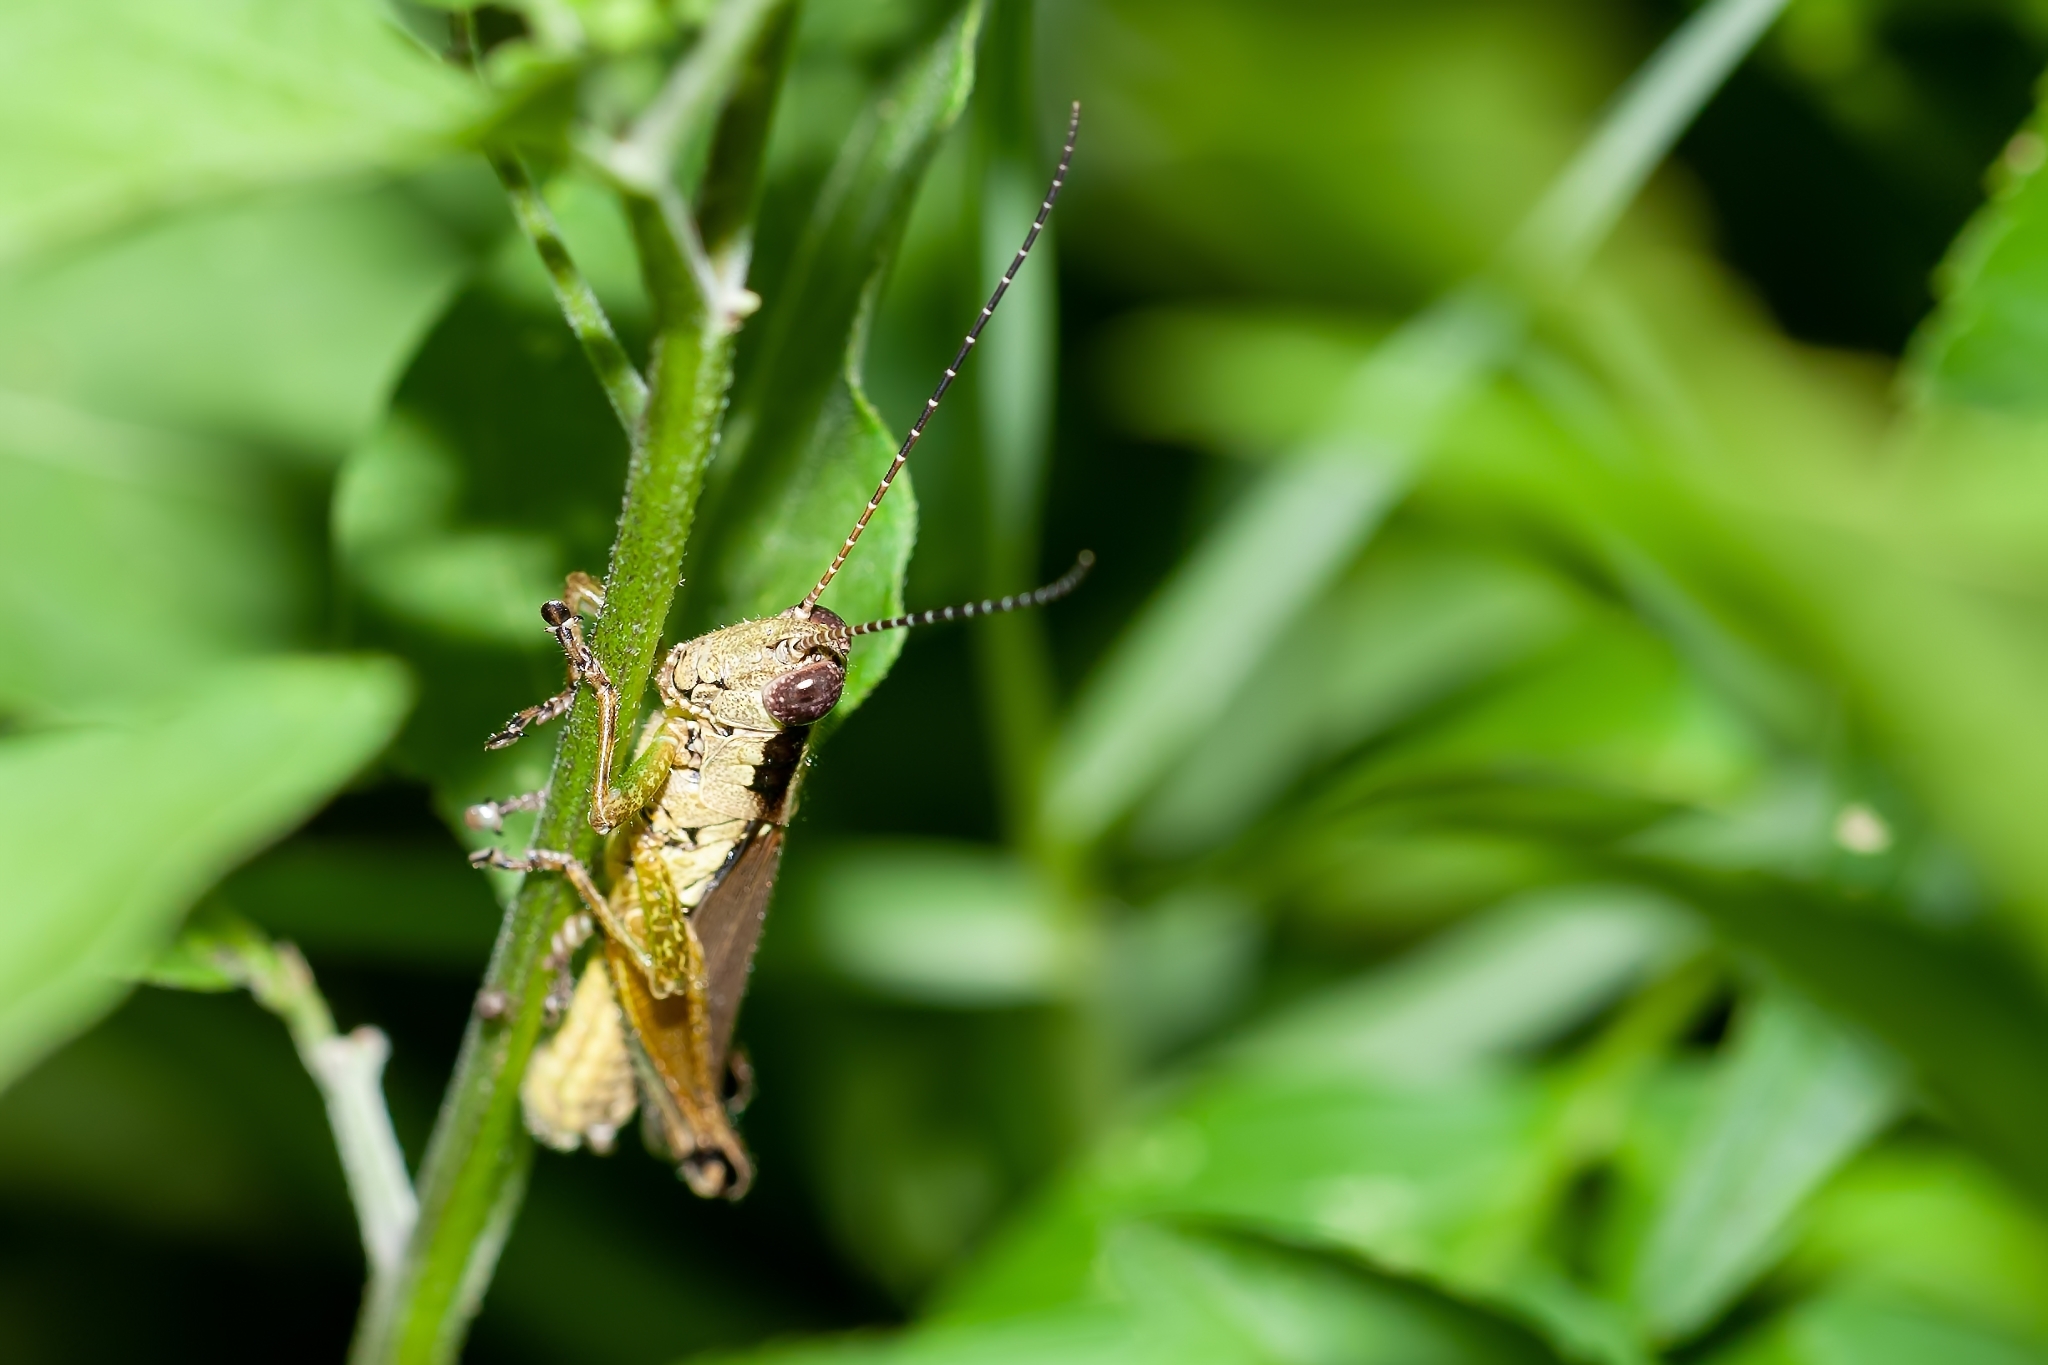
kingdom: Animalia
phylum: Arthropoda
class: Insecta
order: Orthoptera
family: Acrididae
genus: Paroxya
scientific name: Paroxya clavuligera
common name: Olive-green swamp grasshopper
